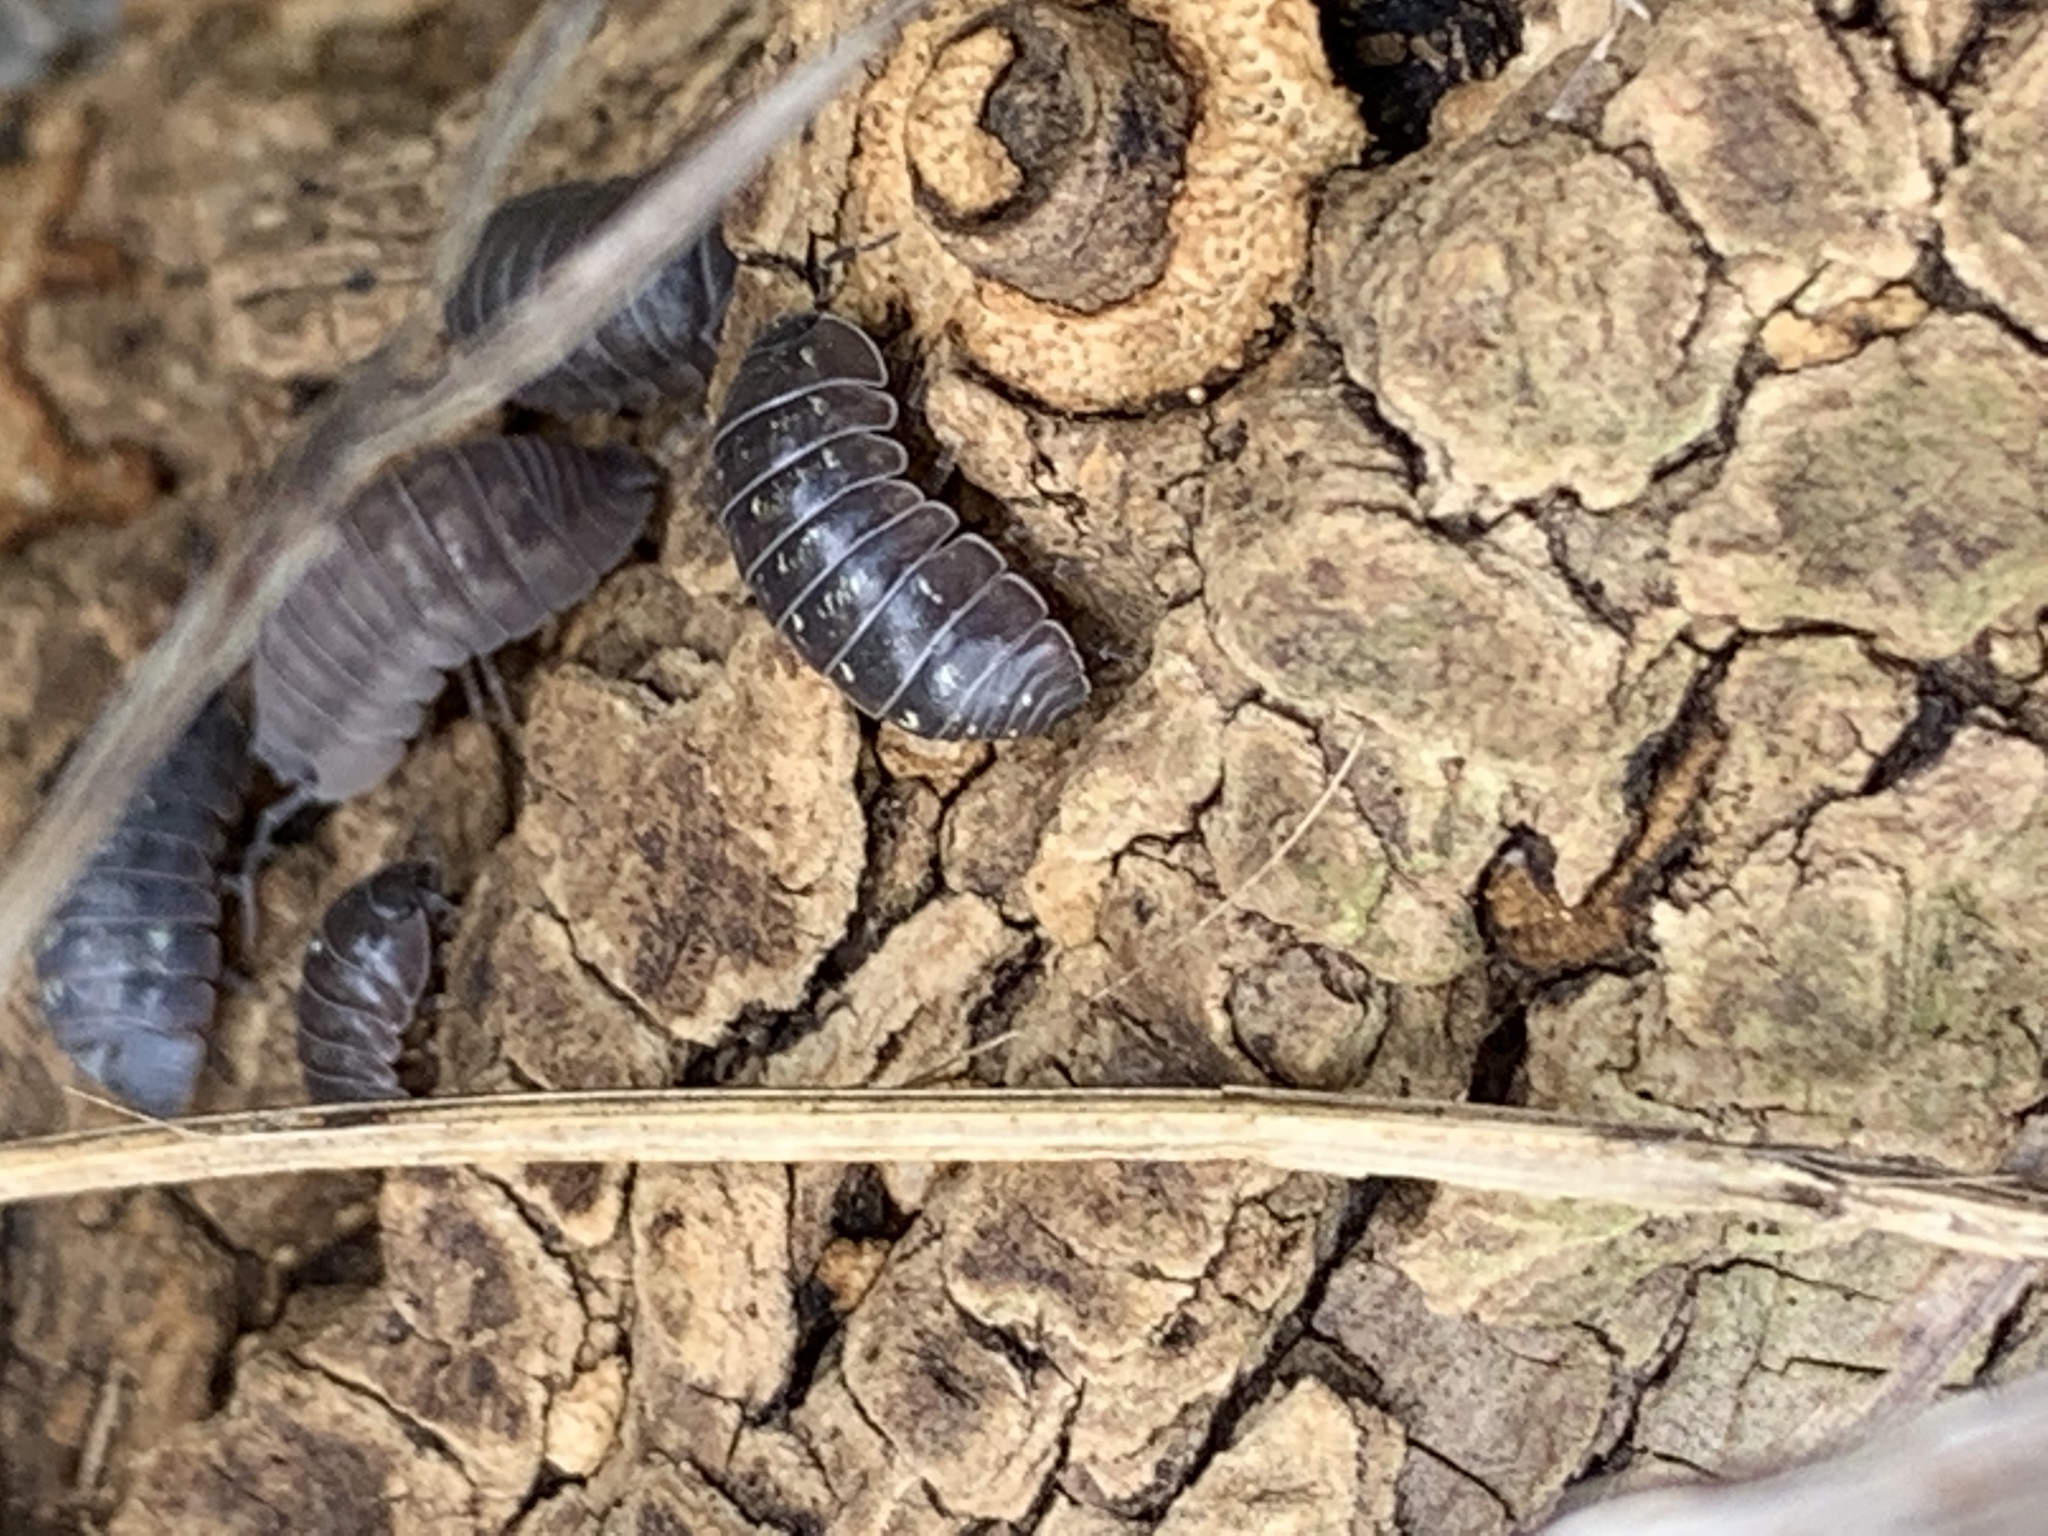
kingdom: Animalia
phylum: Arthropoda
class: Malacostraca
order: Isopoda
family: Armadillidiidae
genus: Armadillidium
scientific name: Armadillidium vulgare
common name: Common pill woodlouse
